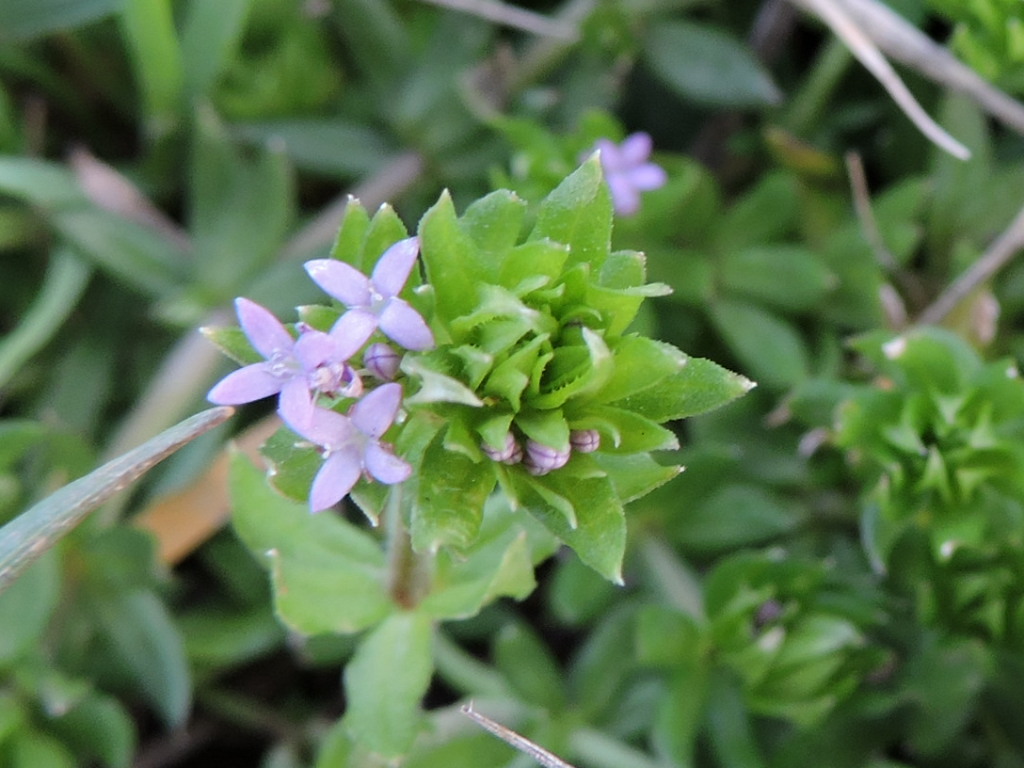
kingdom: Plantae
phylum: Tracheophyta
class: Magnoliopsida
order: Gentianales
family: Rubiaceae
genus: Sherardia
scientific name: Sherardia arvensis
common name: Field madder
